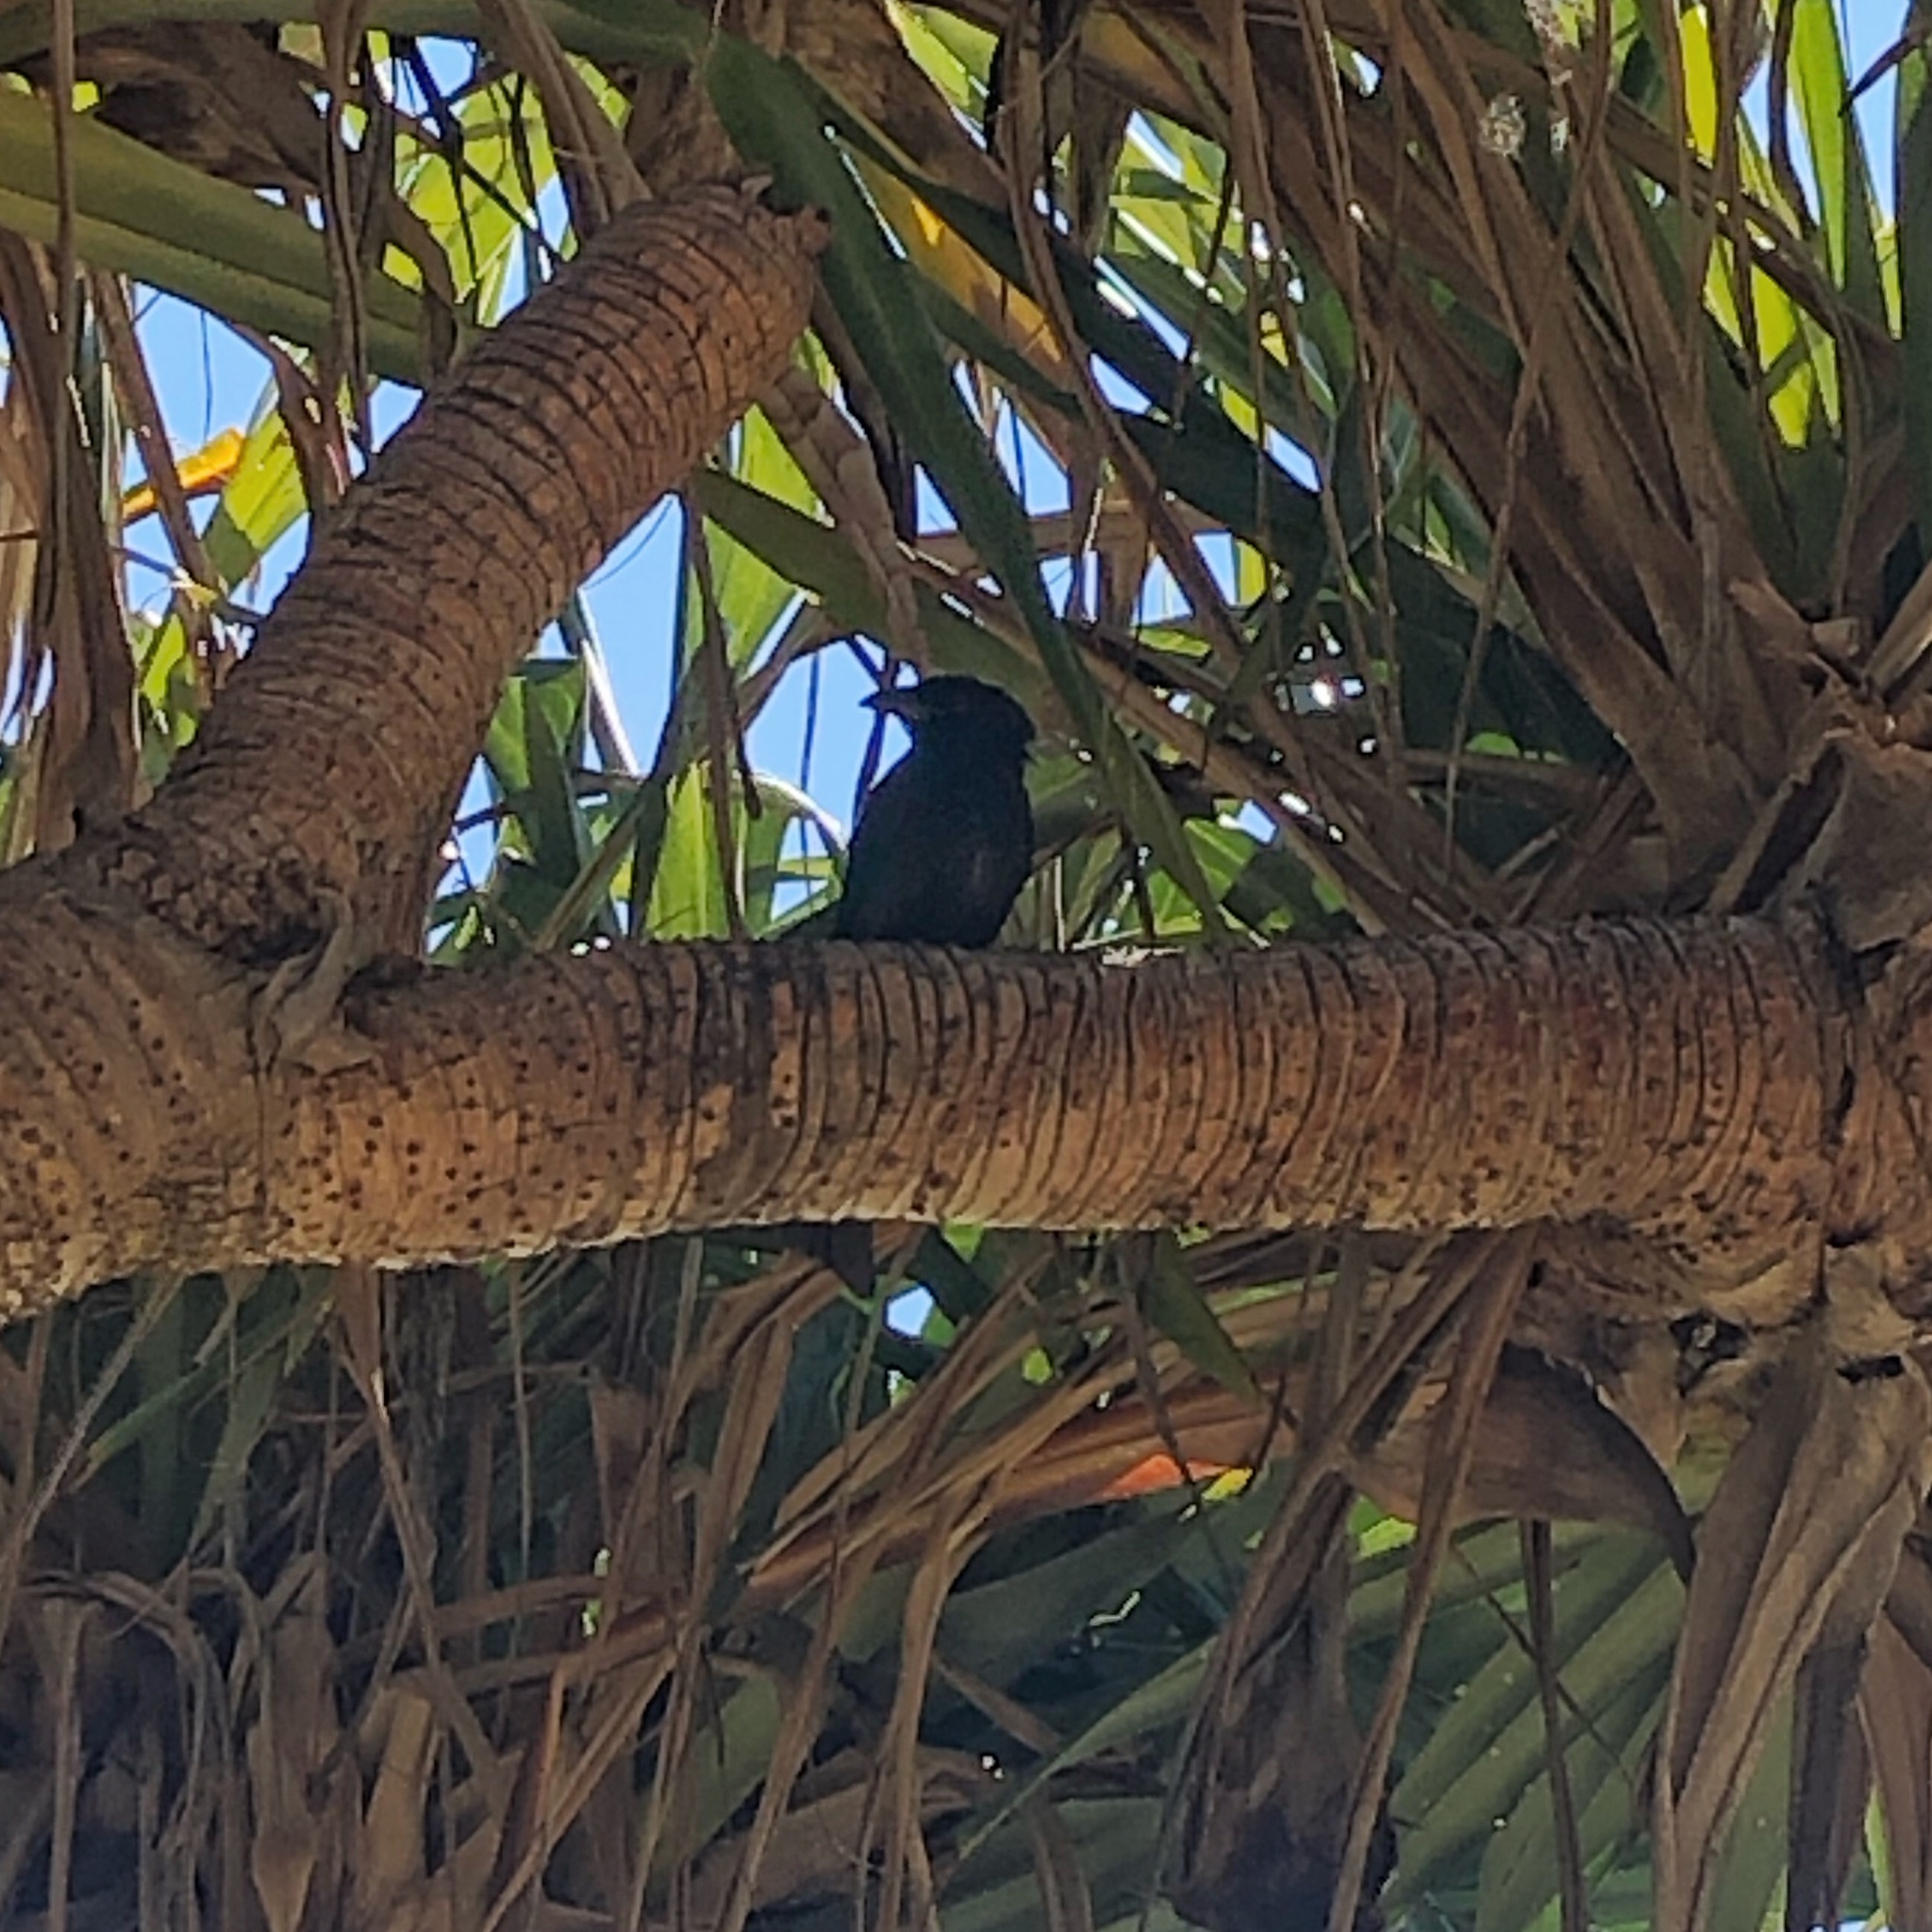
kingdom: Animalia
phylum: Chordata
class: Aves
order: Passeriformes
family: Dicruridae
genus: Dicrurus
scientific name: Dicrurus bracteatus
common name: Spangled drongo
